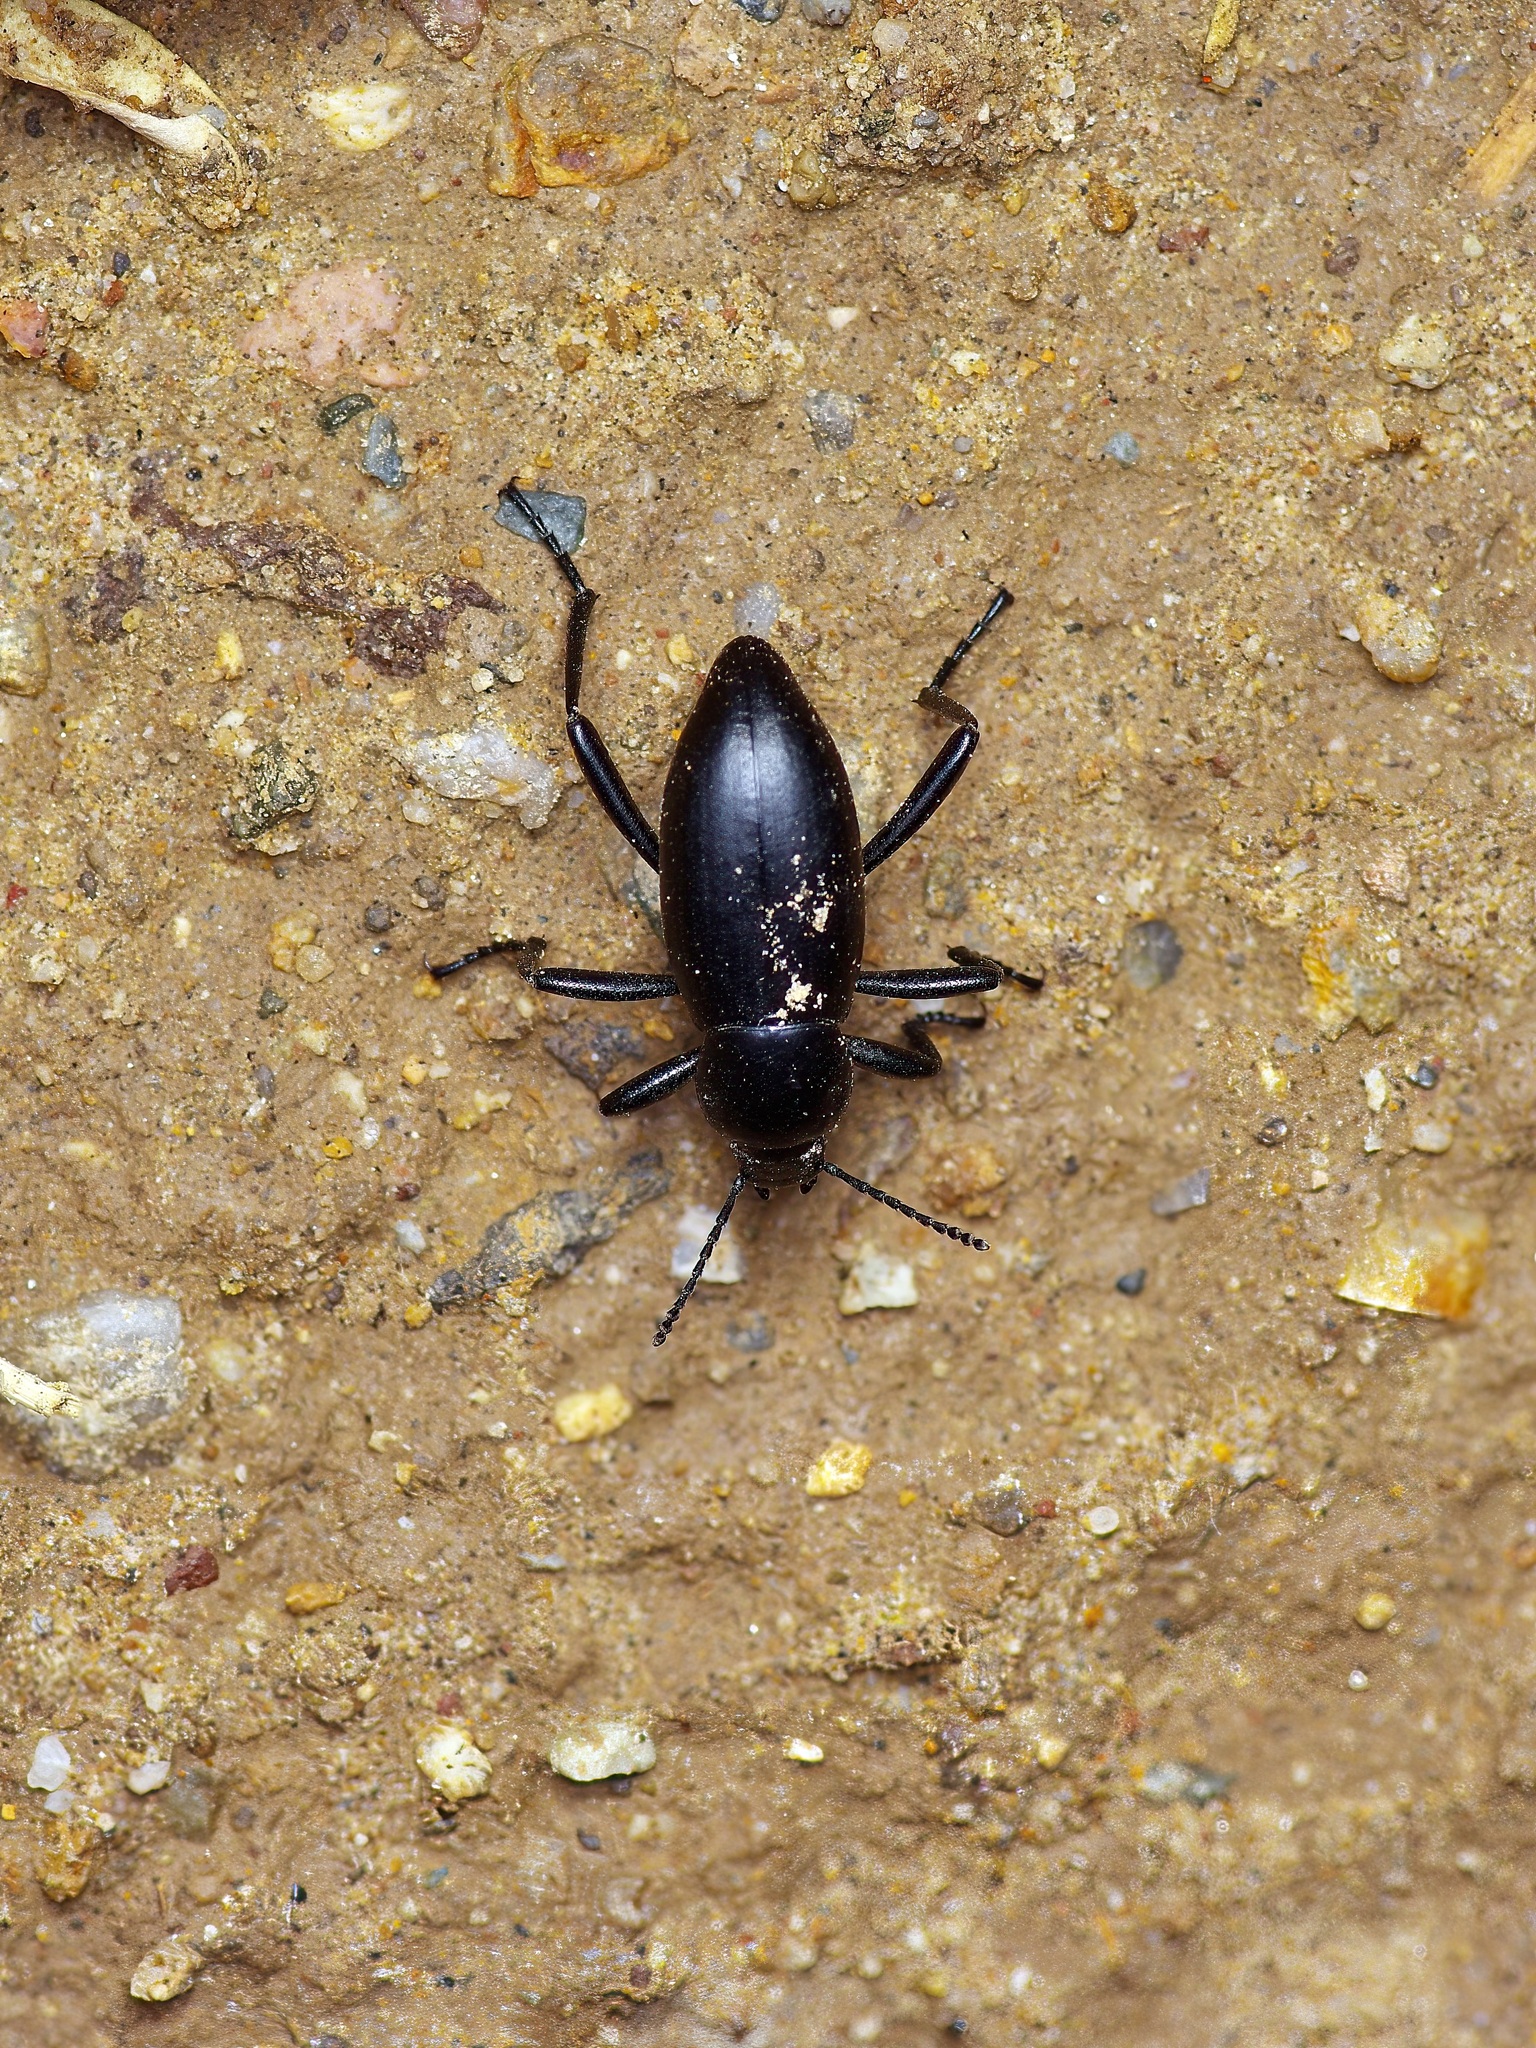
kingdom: Animalia
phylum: Arthropoda
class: Insecta
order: Coleoptera
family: Tenebrionidae
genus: Eleodes
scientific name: Eleodes carbonaria
